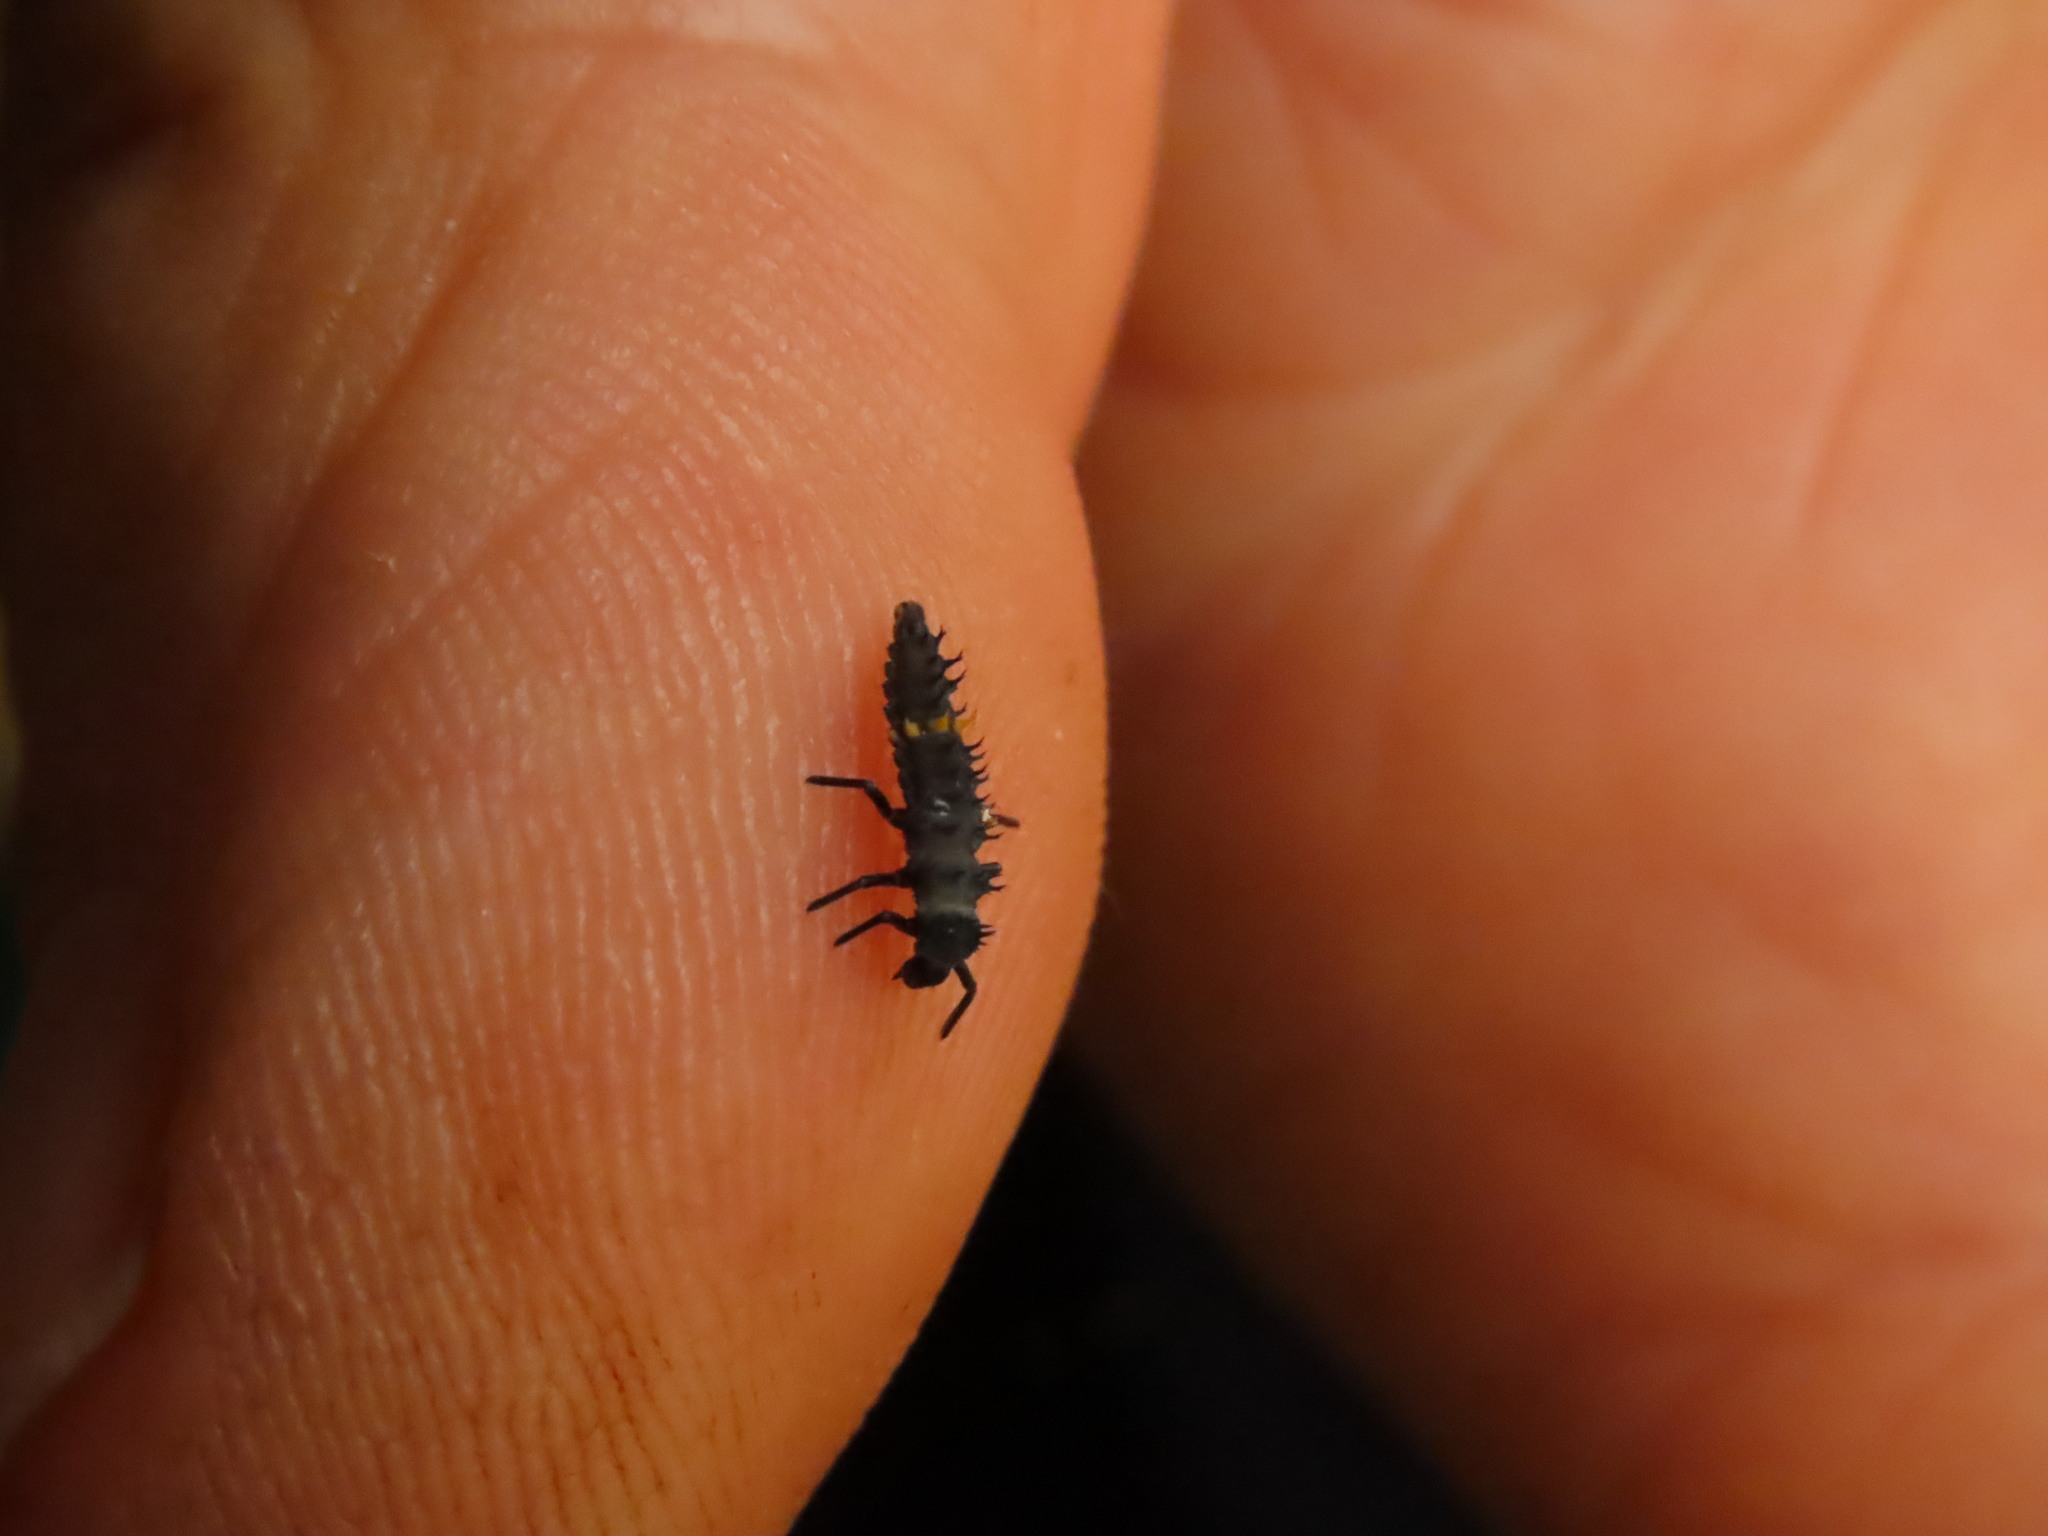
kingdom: Animalia
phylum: Arthropoda
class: Insecta
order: Coleoptera
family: Coccinellidae
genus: Harmonia
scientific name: Harmonia conformis
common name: Common spotted ladybird beetle
